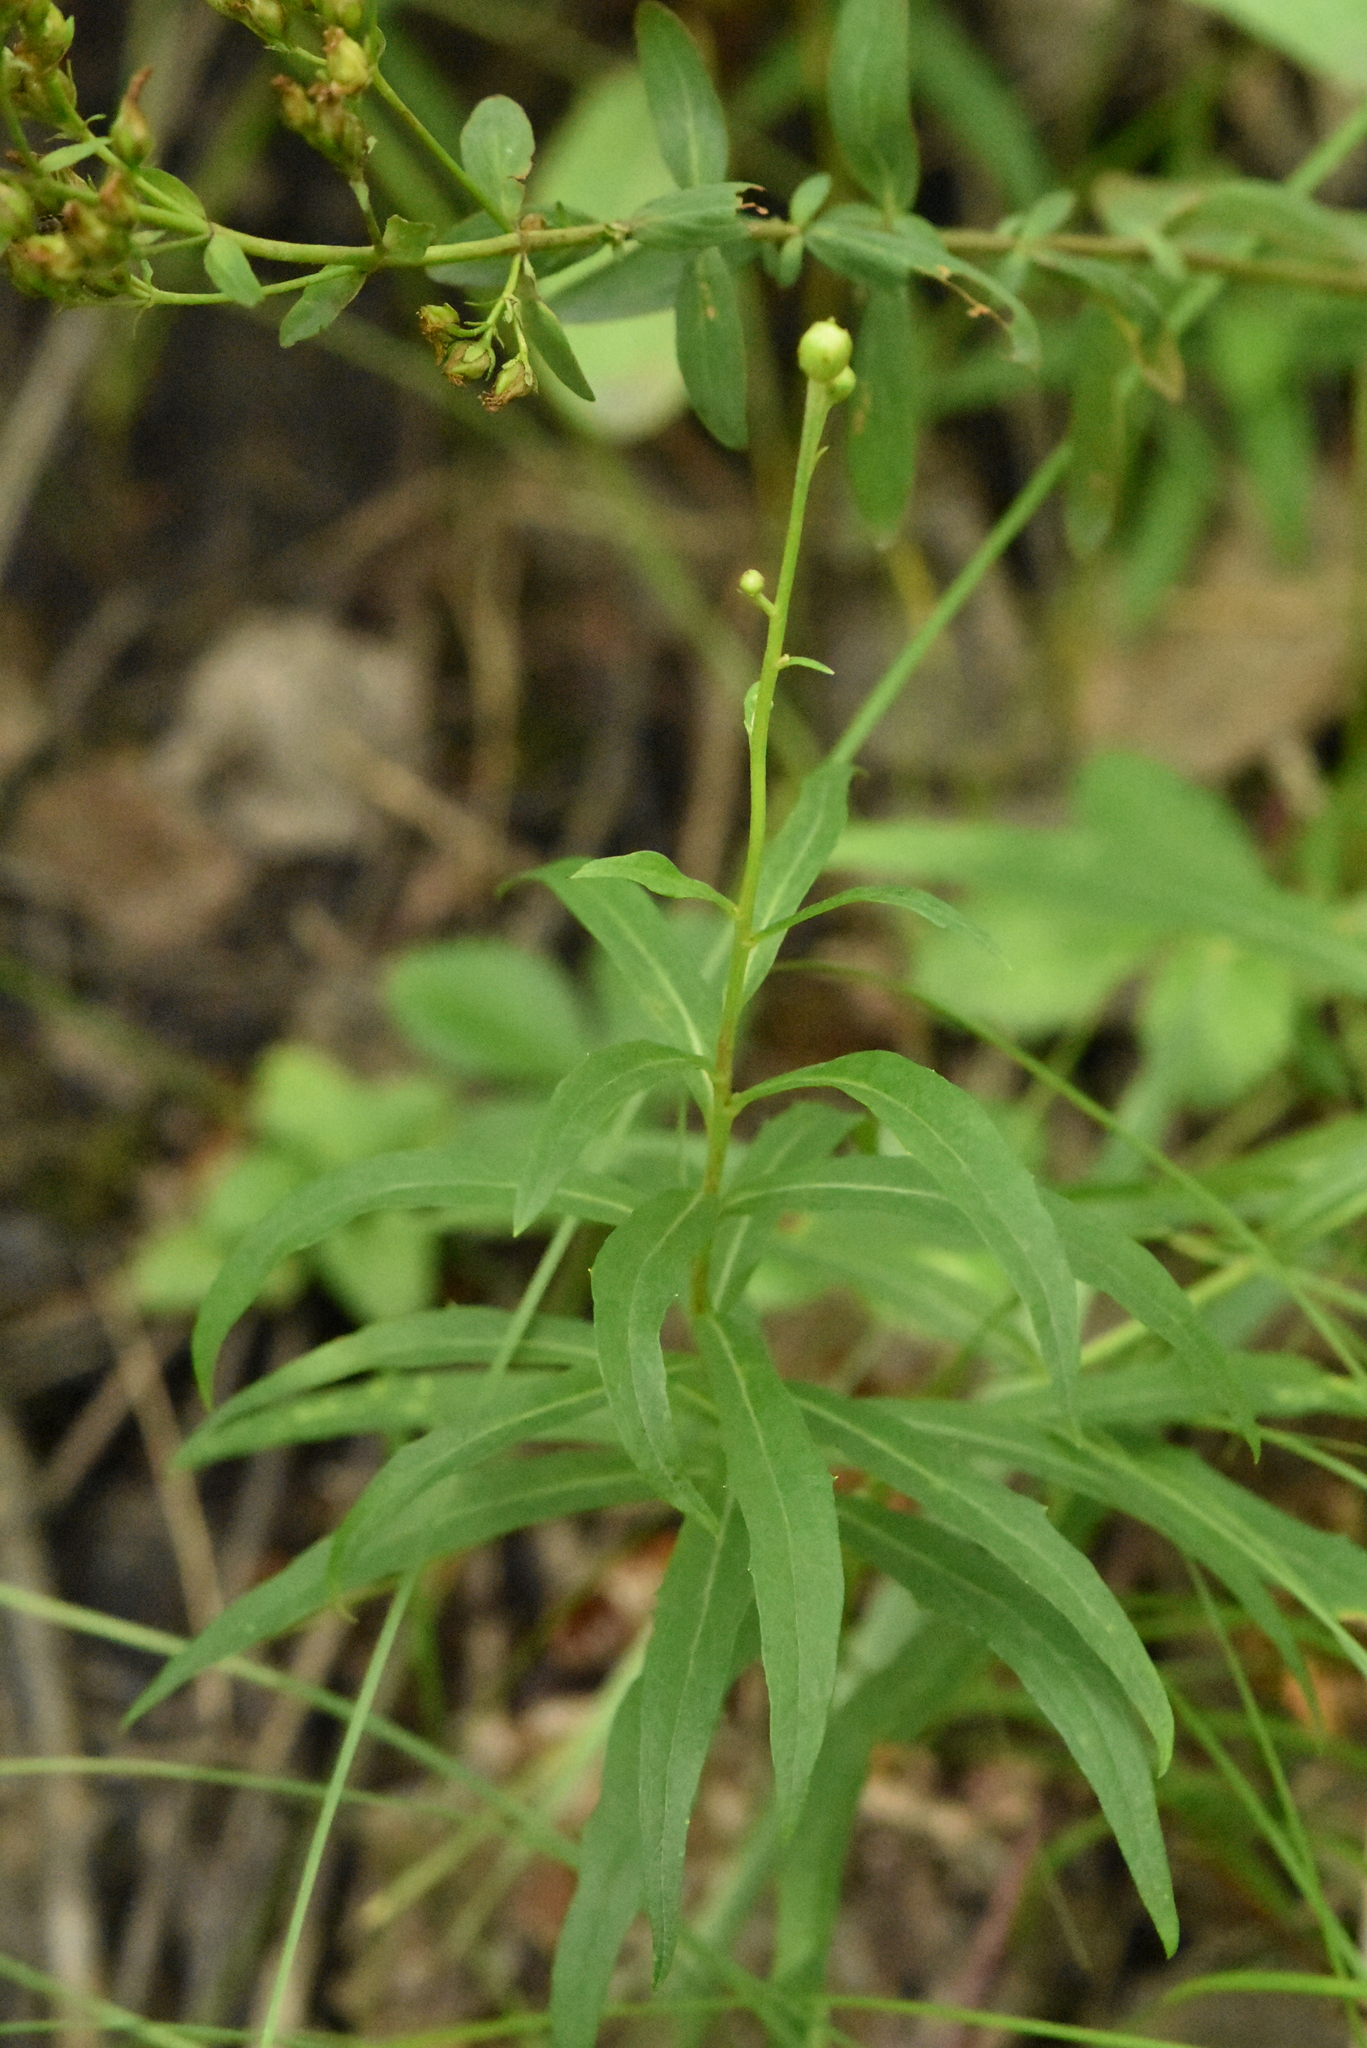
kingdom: Plantae
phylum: Tracheophyta
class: Magnoliopsida
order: Asterales
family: Asteraceae
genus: Hieracium
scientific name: Hieracium umbellatum
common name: Northern hawkweed
